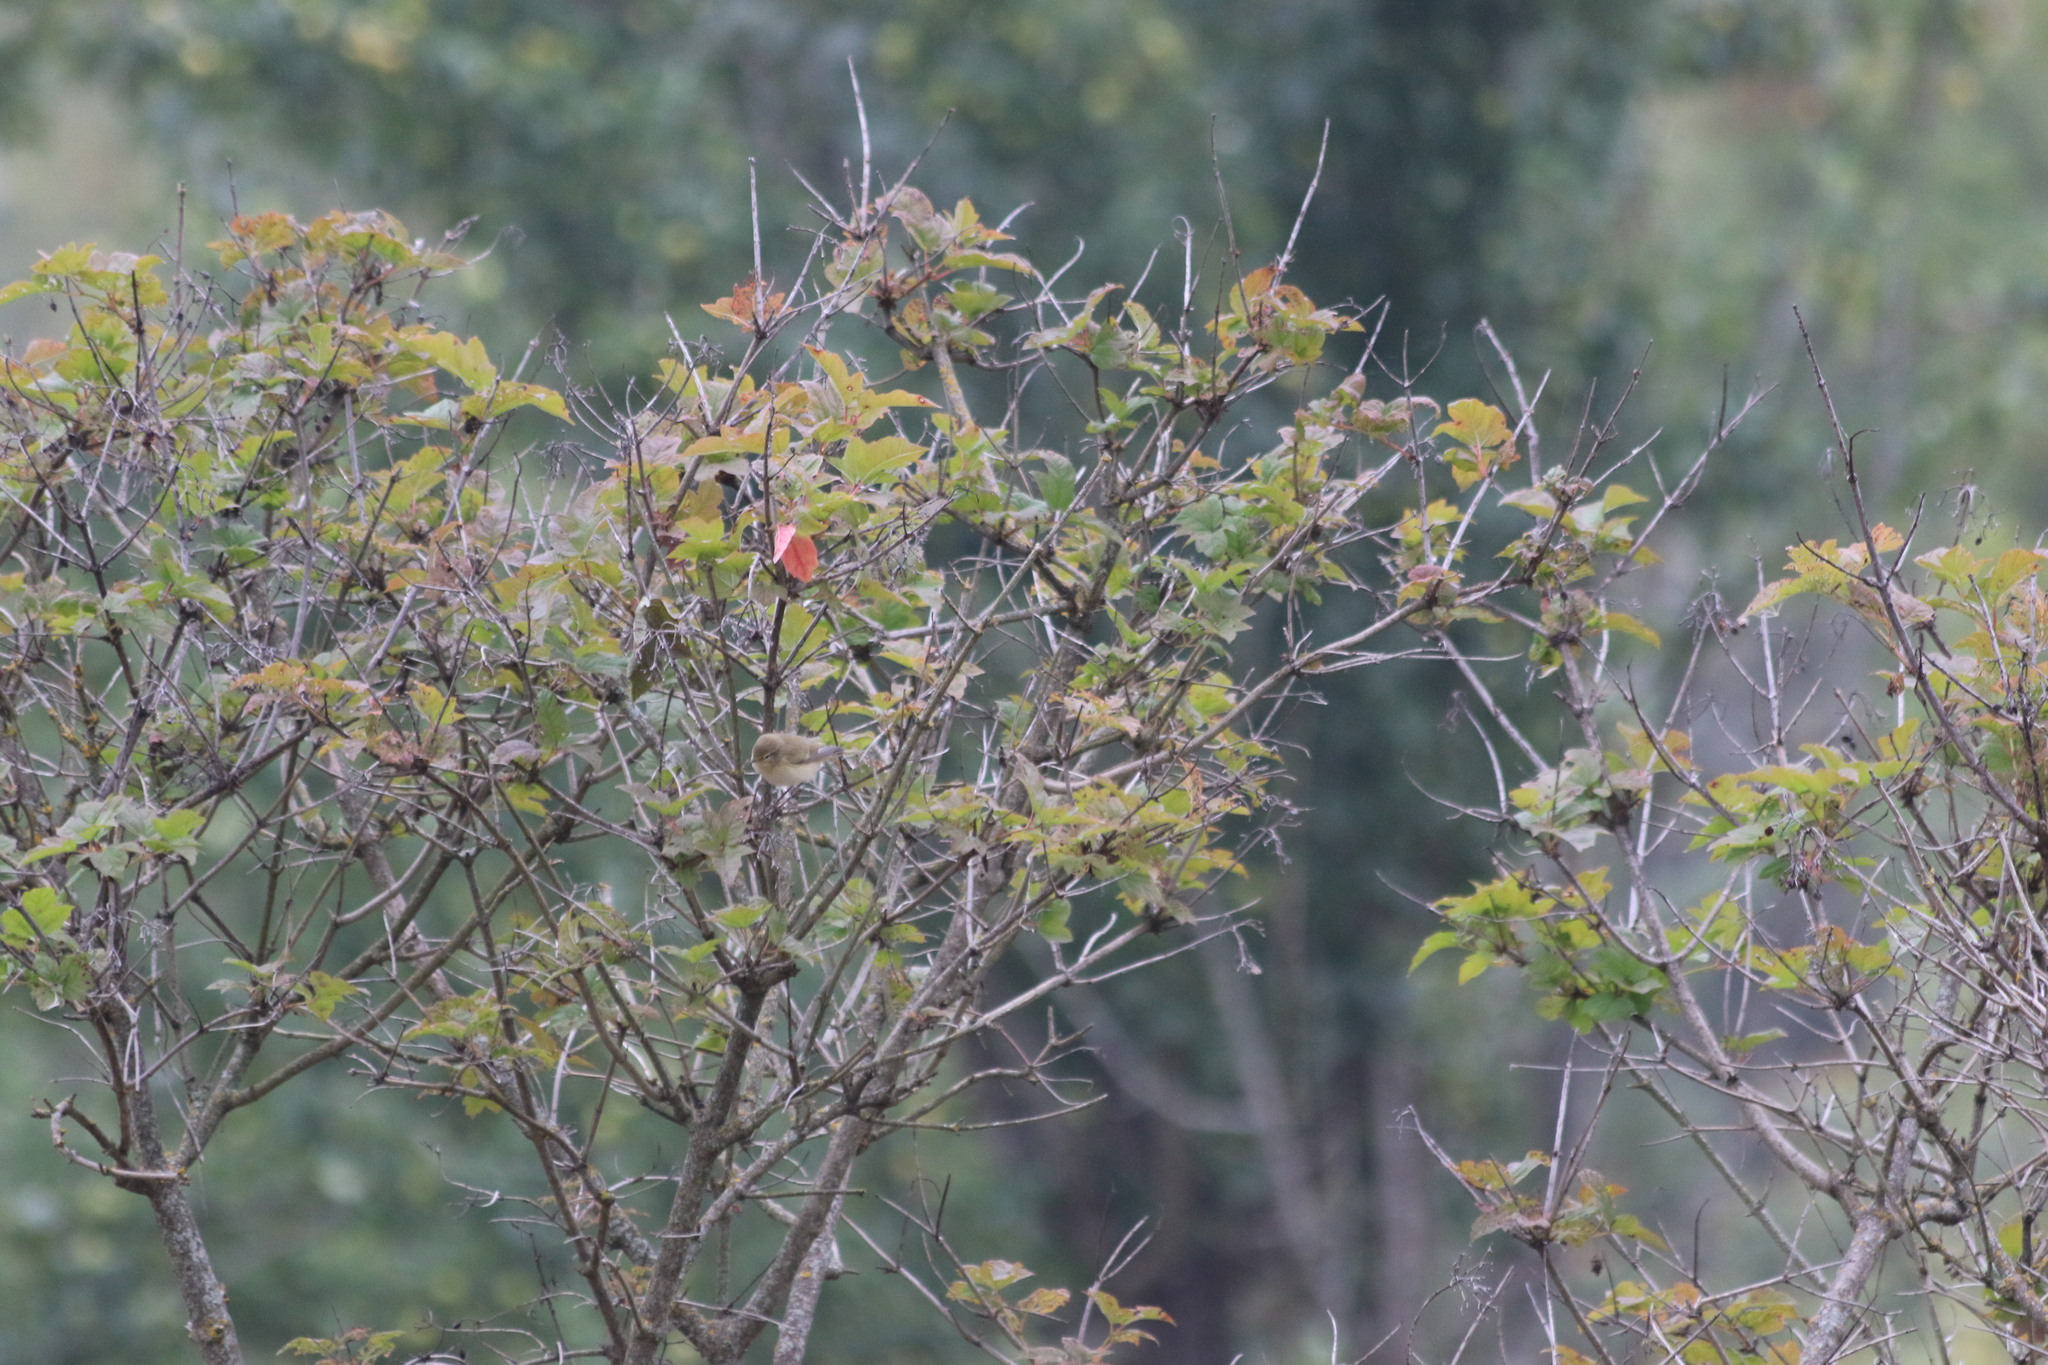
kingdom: Animalia
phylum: Chordata
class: Aves
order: Passeriformes
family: Phylloscopidae
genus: Phylloscopus
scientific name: Phylloscopus collybita
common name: Common chiffchaff
